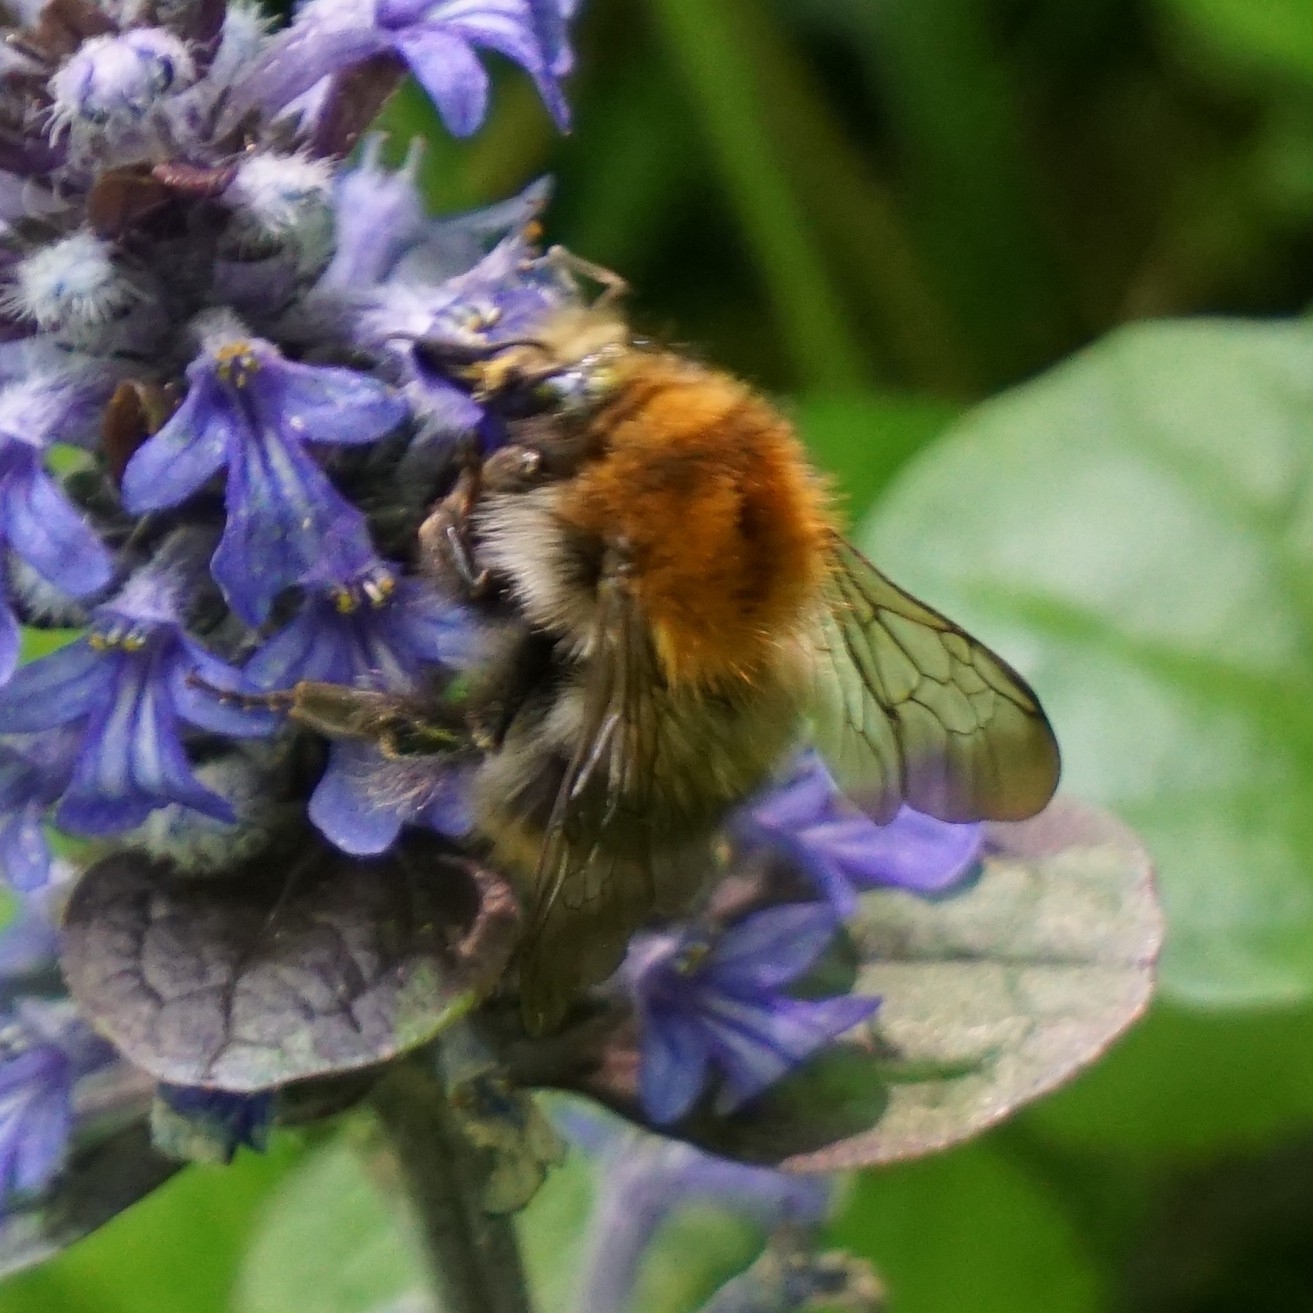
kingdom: Animalia
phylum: Arthropoda
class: Insecta
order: Hymenoptera
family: Apidae
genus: Bombus
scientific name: Bombus pascuorum
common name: Common carder bee
